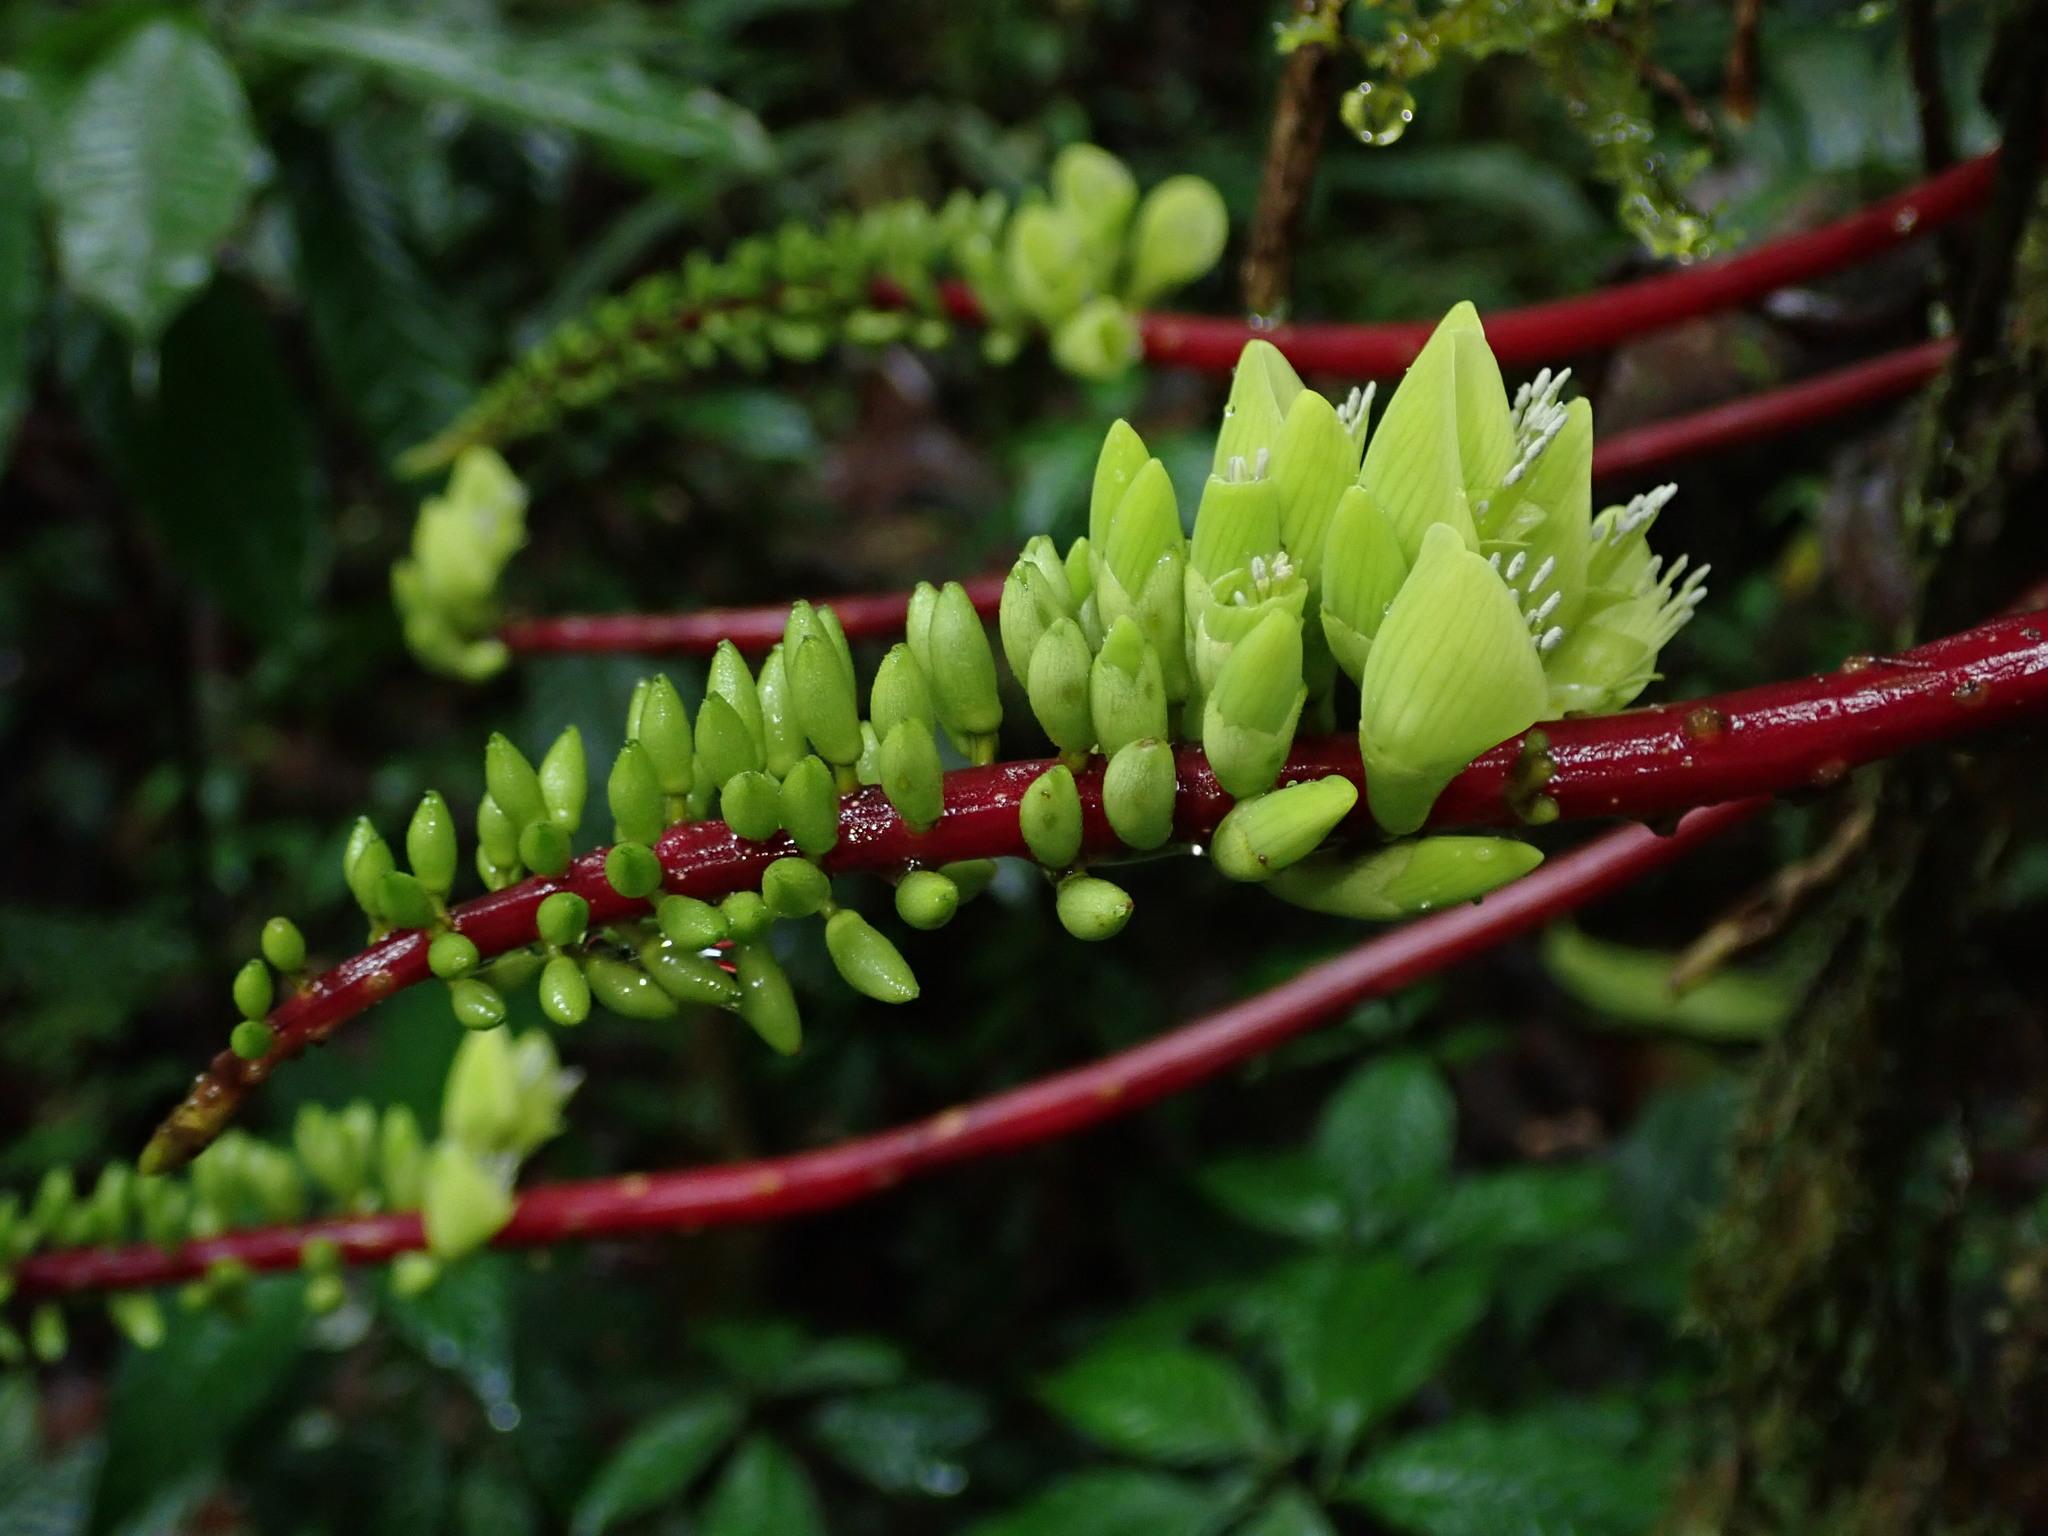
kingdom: Plantae
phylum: Tracheophyta
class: Magnoliopsida
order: Fabales
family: Fabaceae
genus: Erythrina
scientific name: Erythrina edulis
